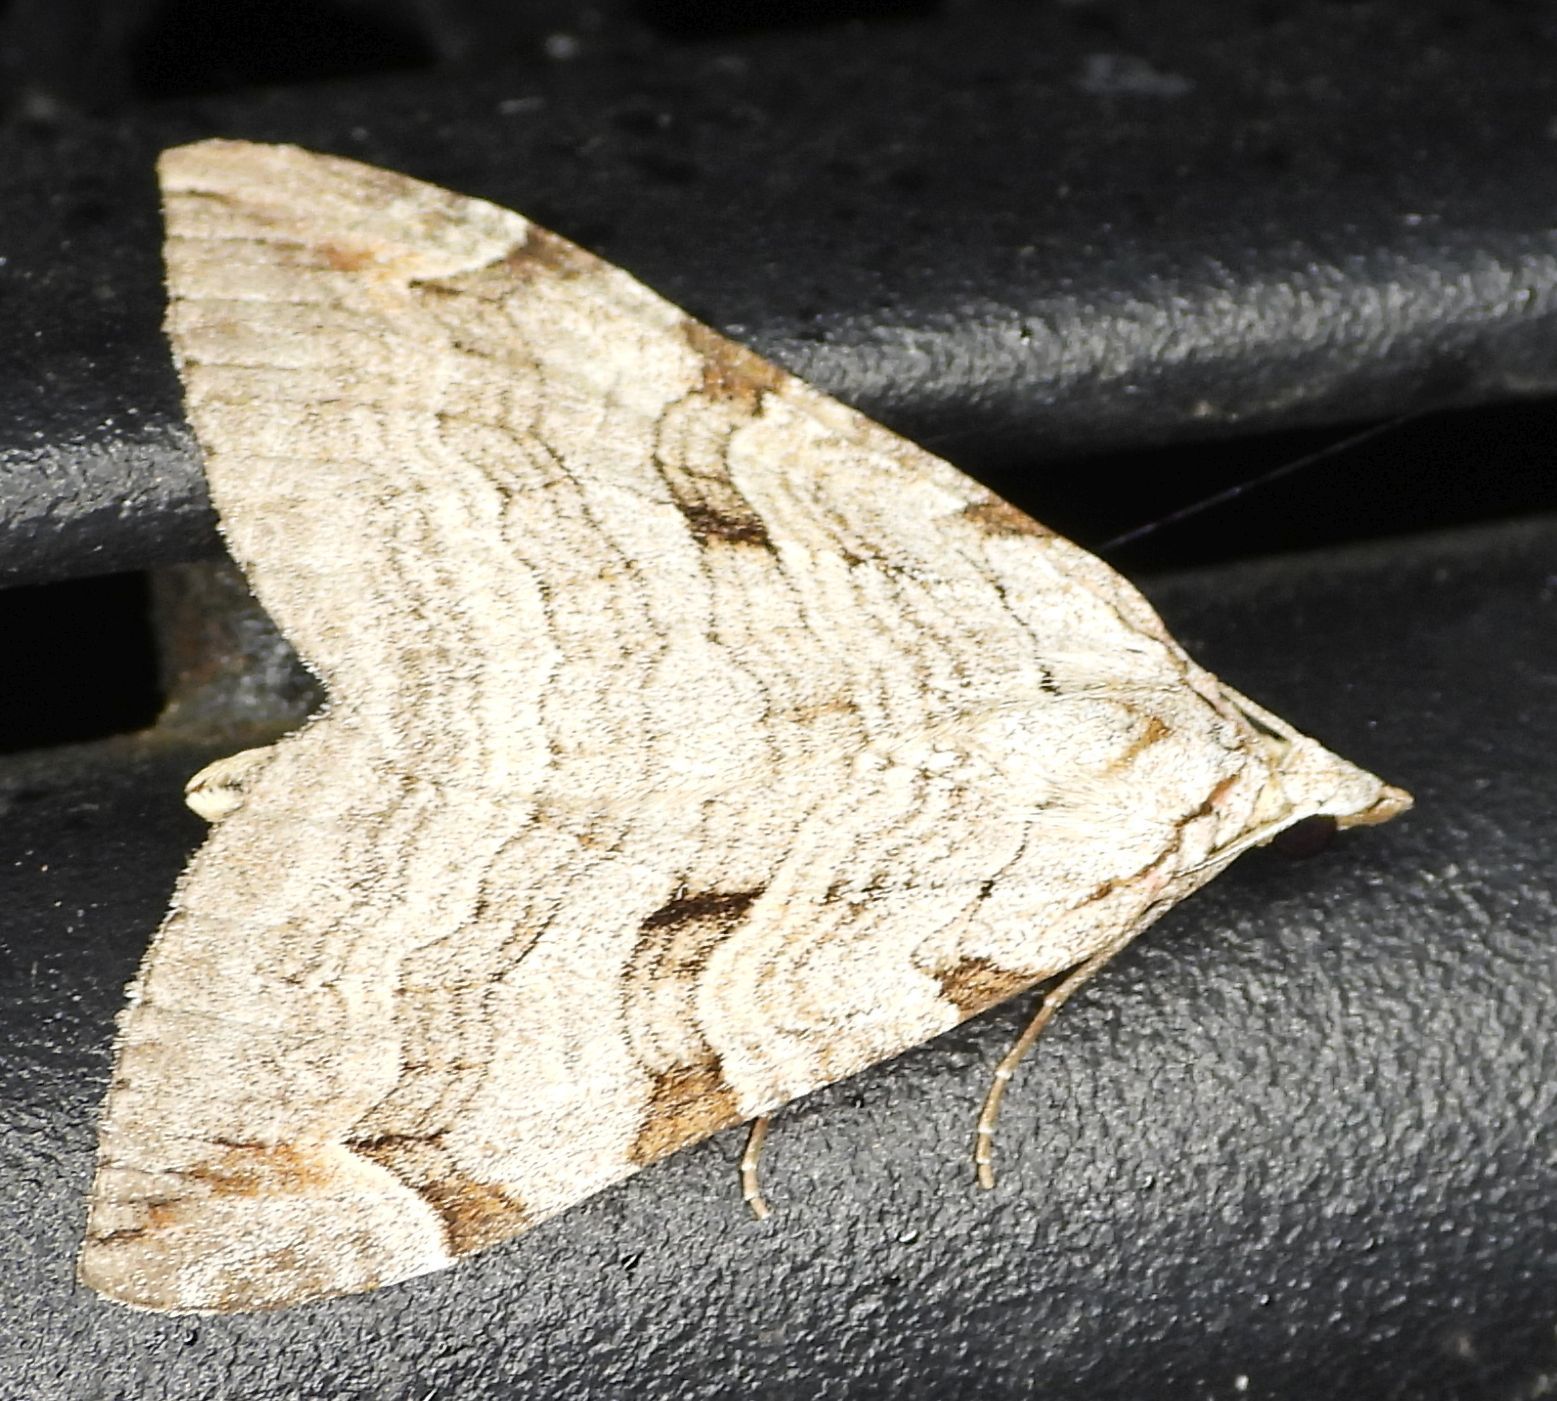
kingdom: Animalia
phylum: Arthropoda
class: Insecta
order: Lepidoptera
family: Geometridae
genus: Aplocera
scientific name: Aplocera plagiata
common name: Treble-bar
